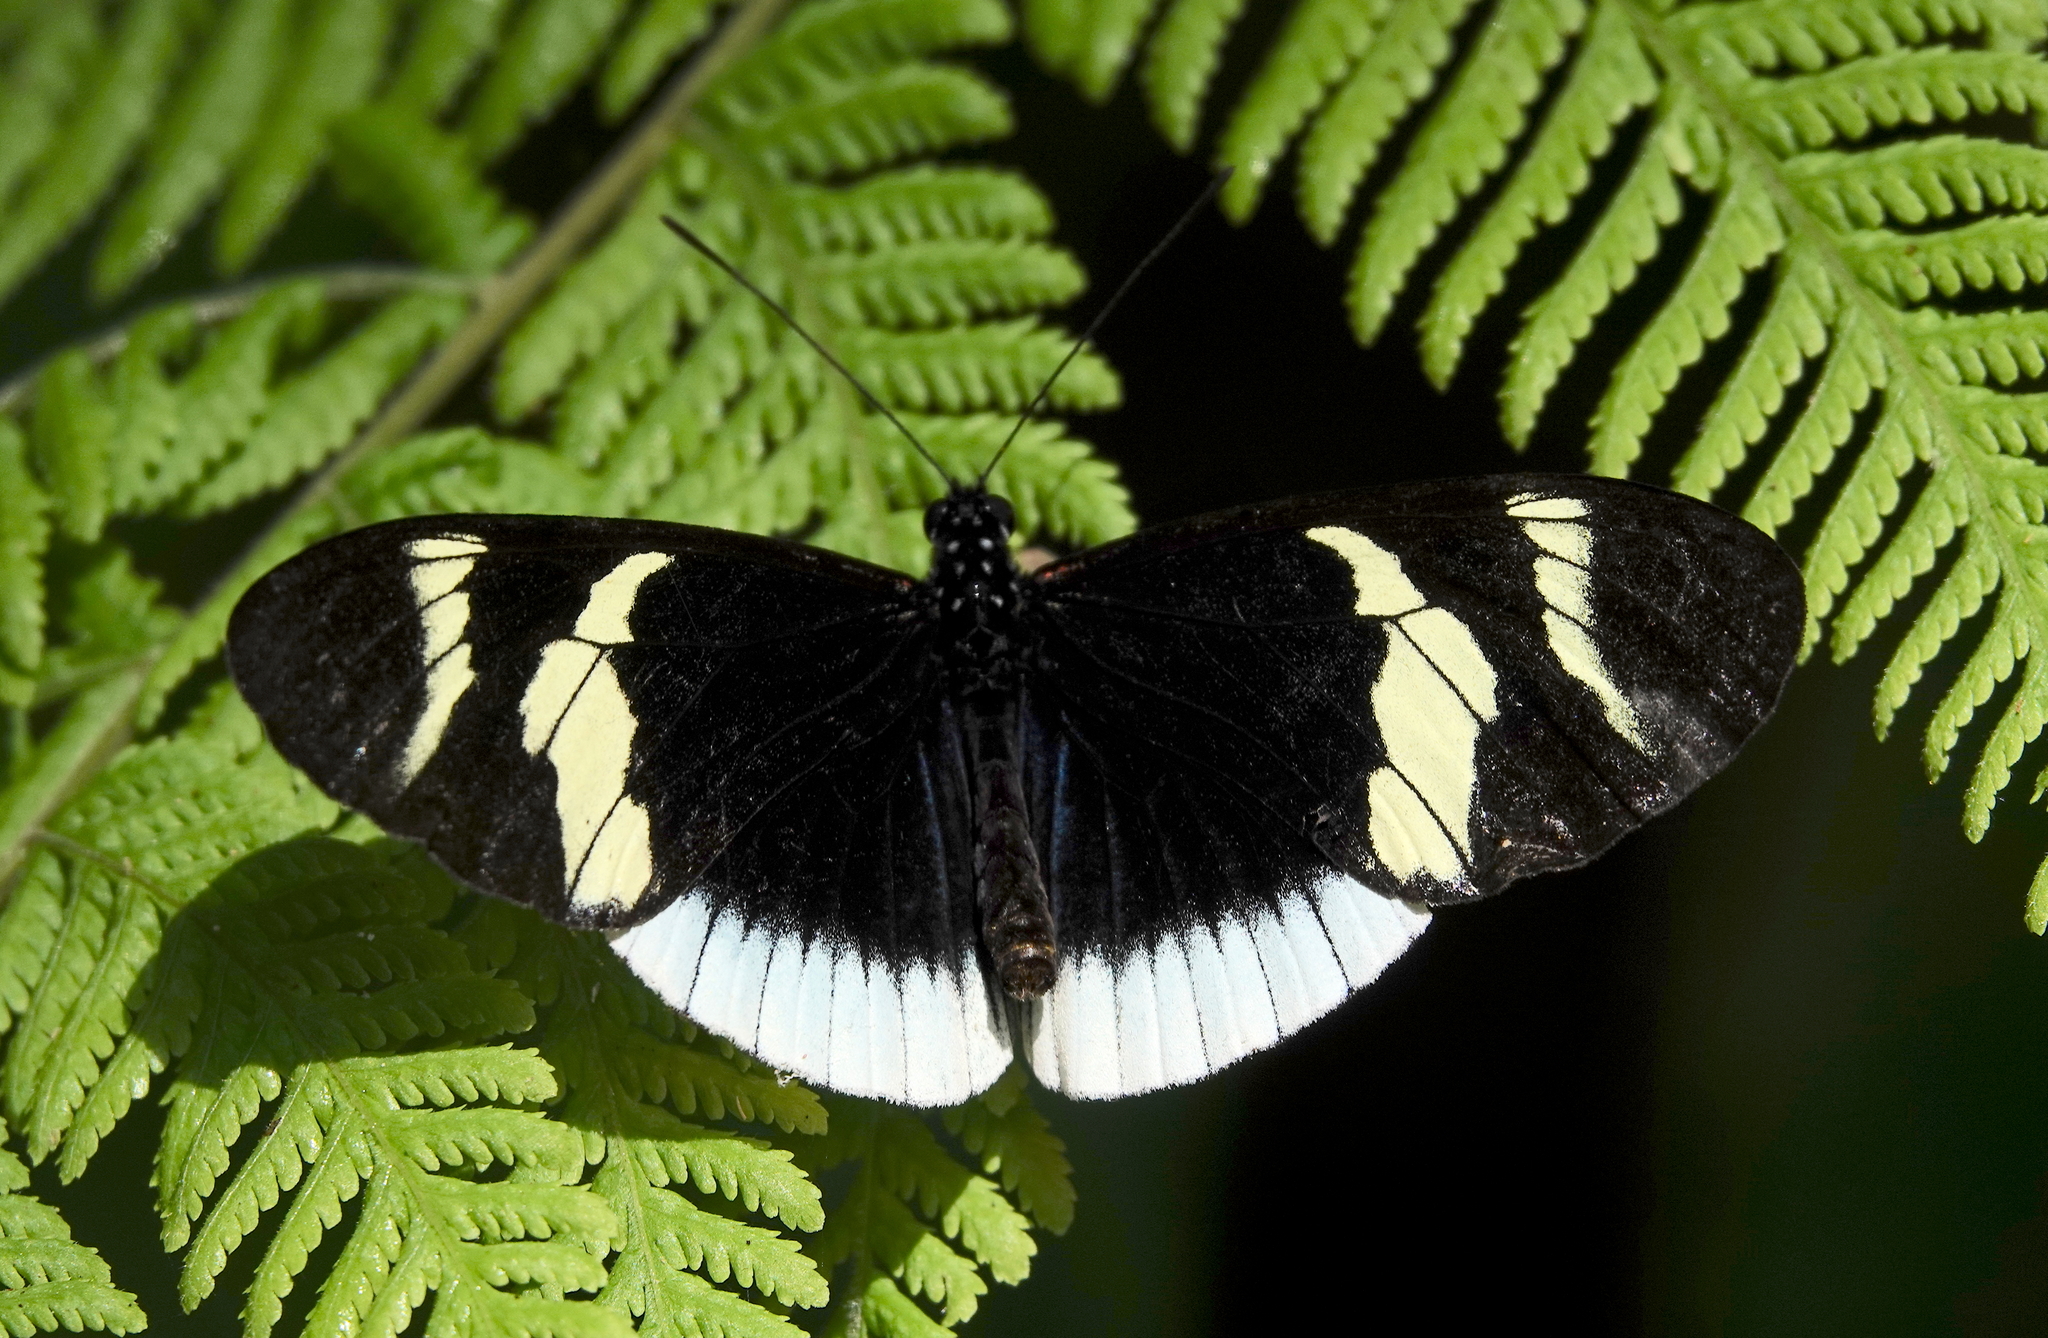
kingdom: Animalia
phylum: Arthropoda
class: Insecta
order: Lepidoptera
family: Nymphalidae
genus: Heliconius
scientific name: Heliconius eleuchia
